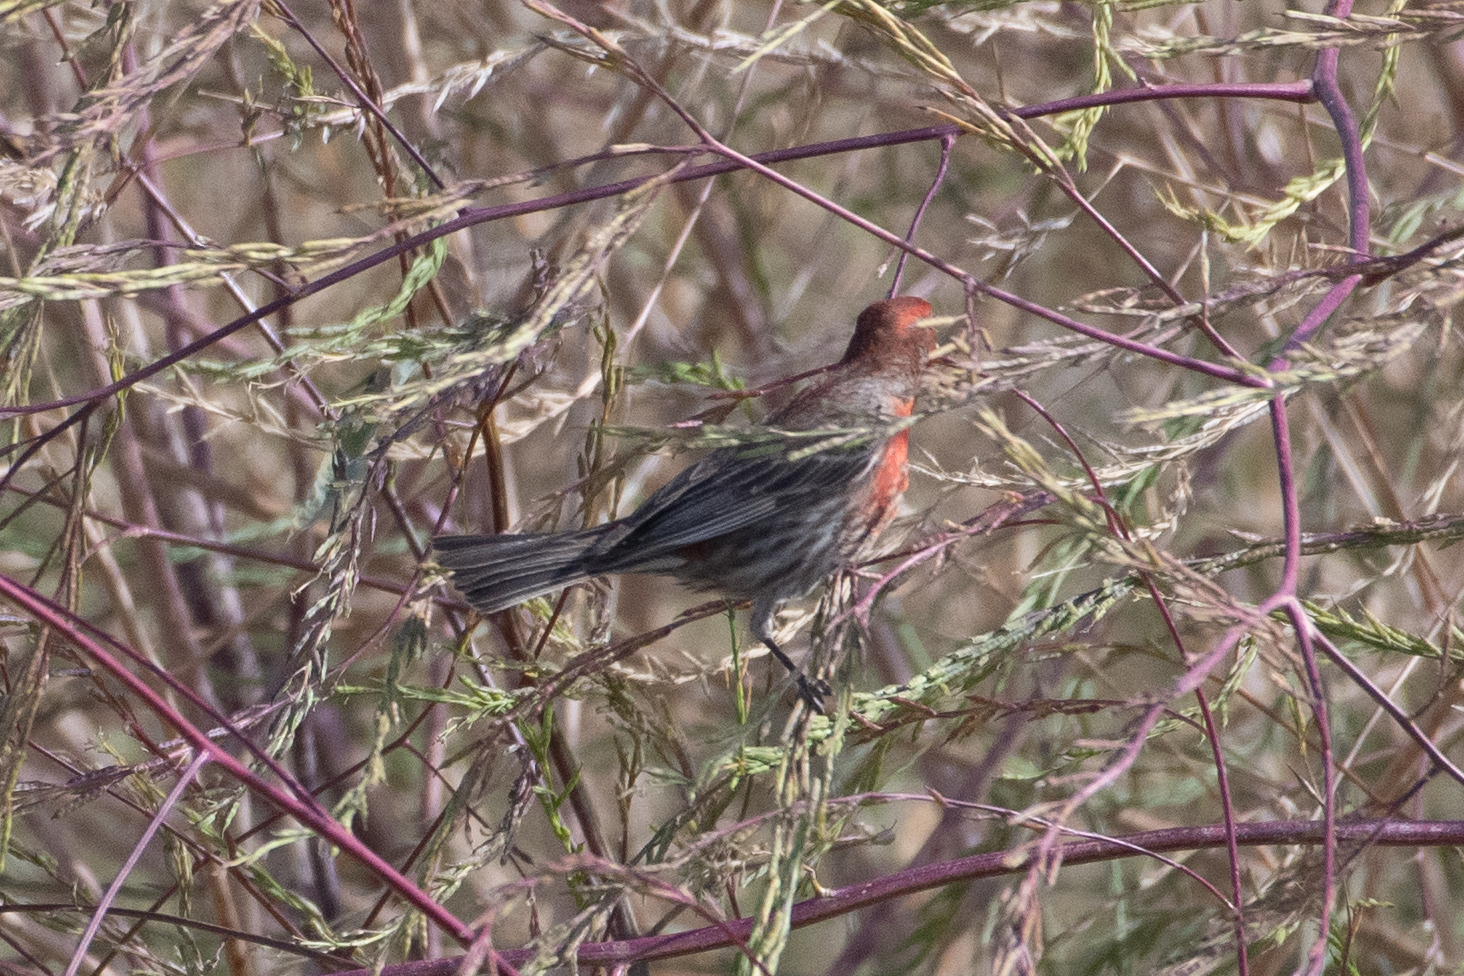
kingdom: Animalia
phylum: Chordata
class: Aves
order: Passeriformes
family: Fringillidae
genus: Haemorhous
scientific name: Haemorhous mexicanus
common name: House finch
